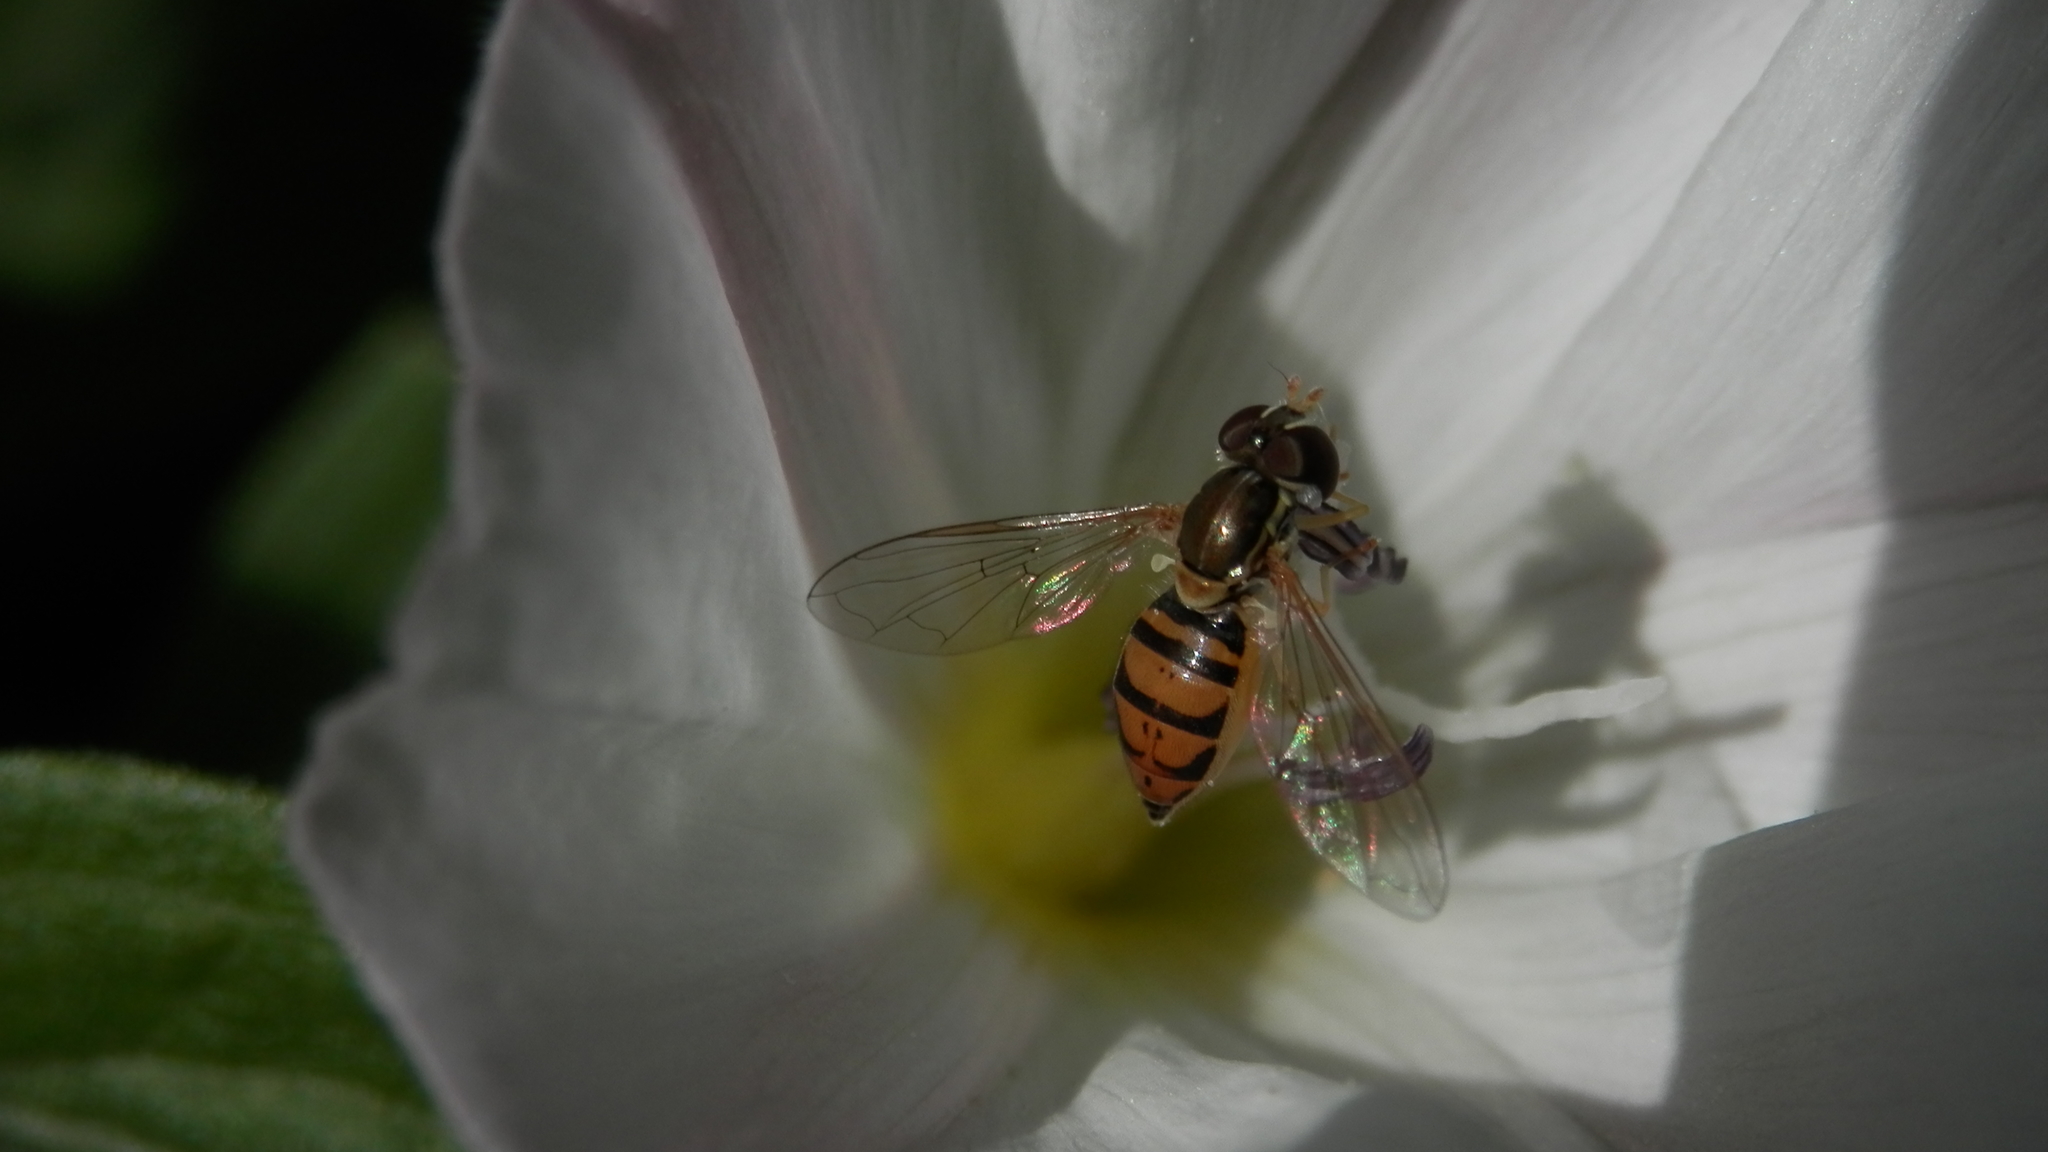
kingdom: Animalia
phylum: Arthropoda
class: Insecta
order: Diptera
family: Syrphidae
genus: Toxomerus
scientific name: Toxomerus marginatus
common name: Syrphid fly
